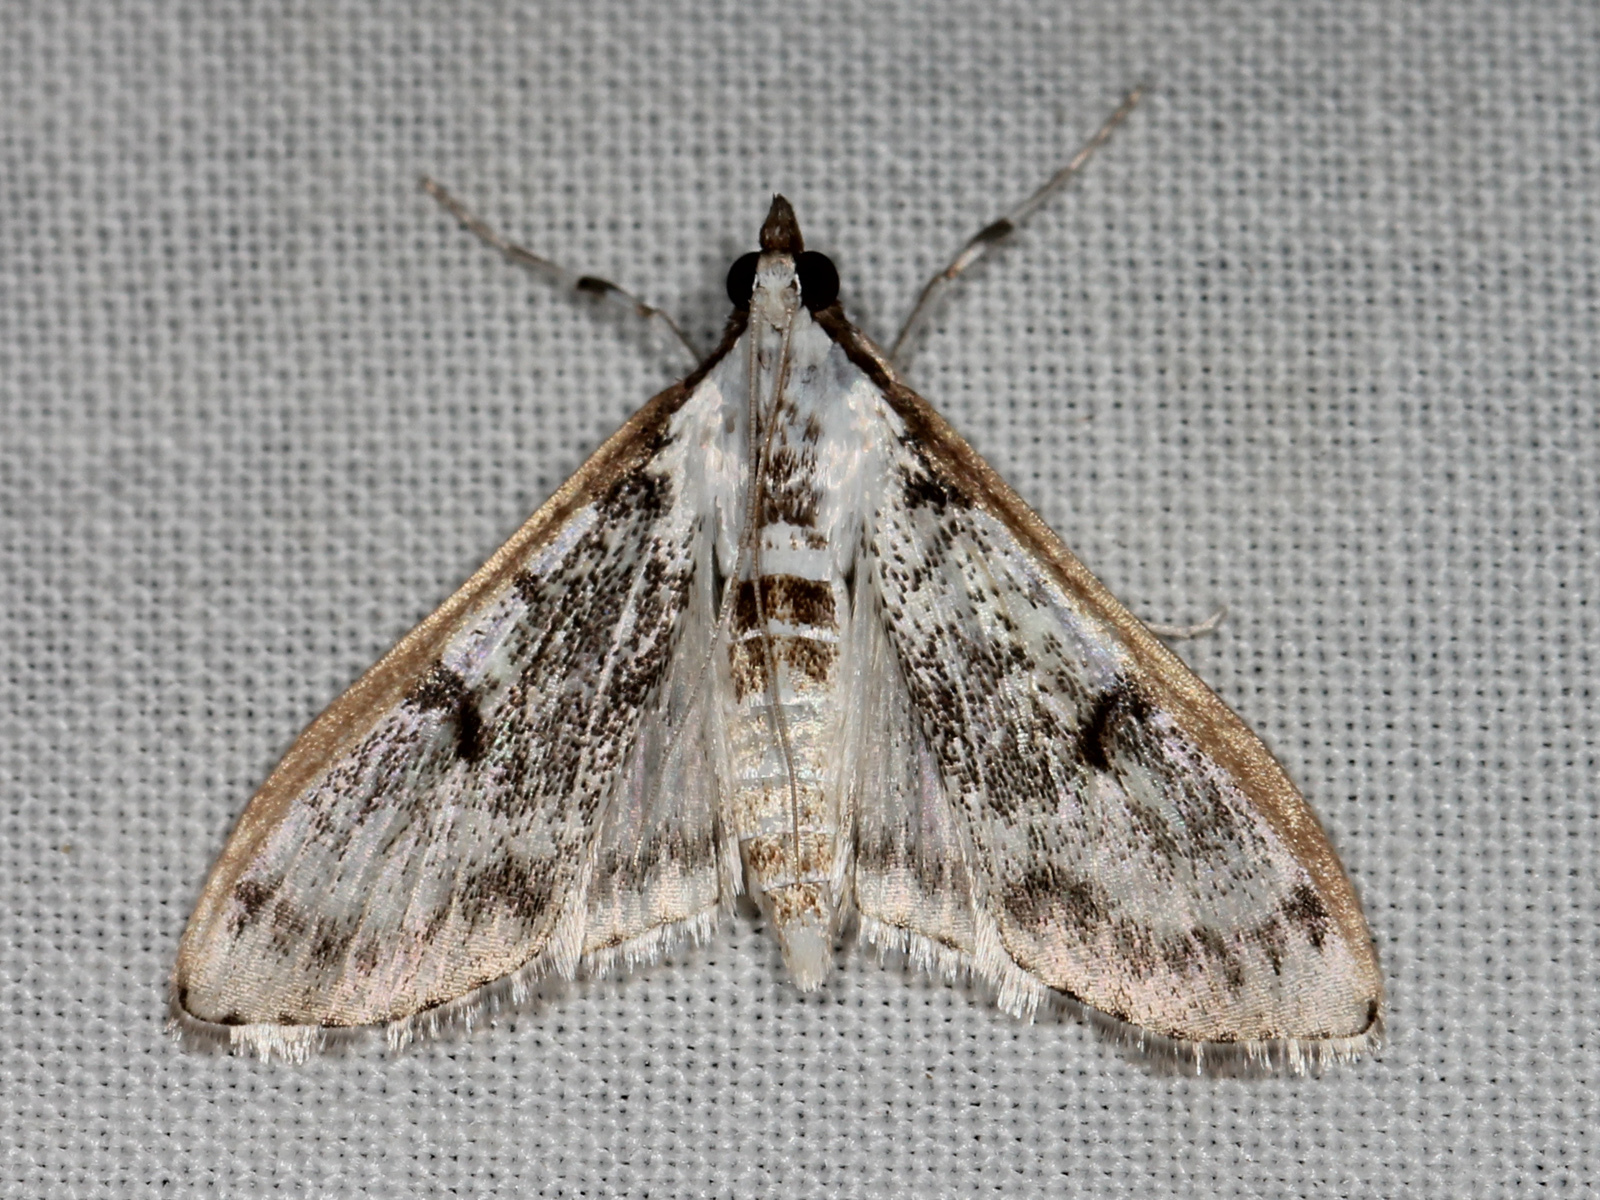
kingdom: Animalia
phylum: Arthropoda
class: Insecta
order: Lepidoptera
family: Crambidae
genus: Palpita
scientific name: Palpita gracilalis
